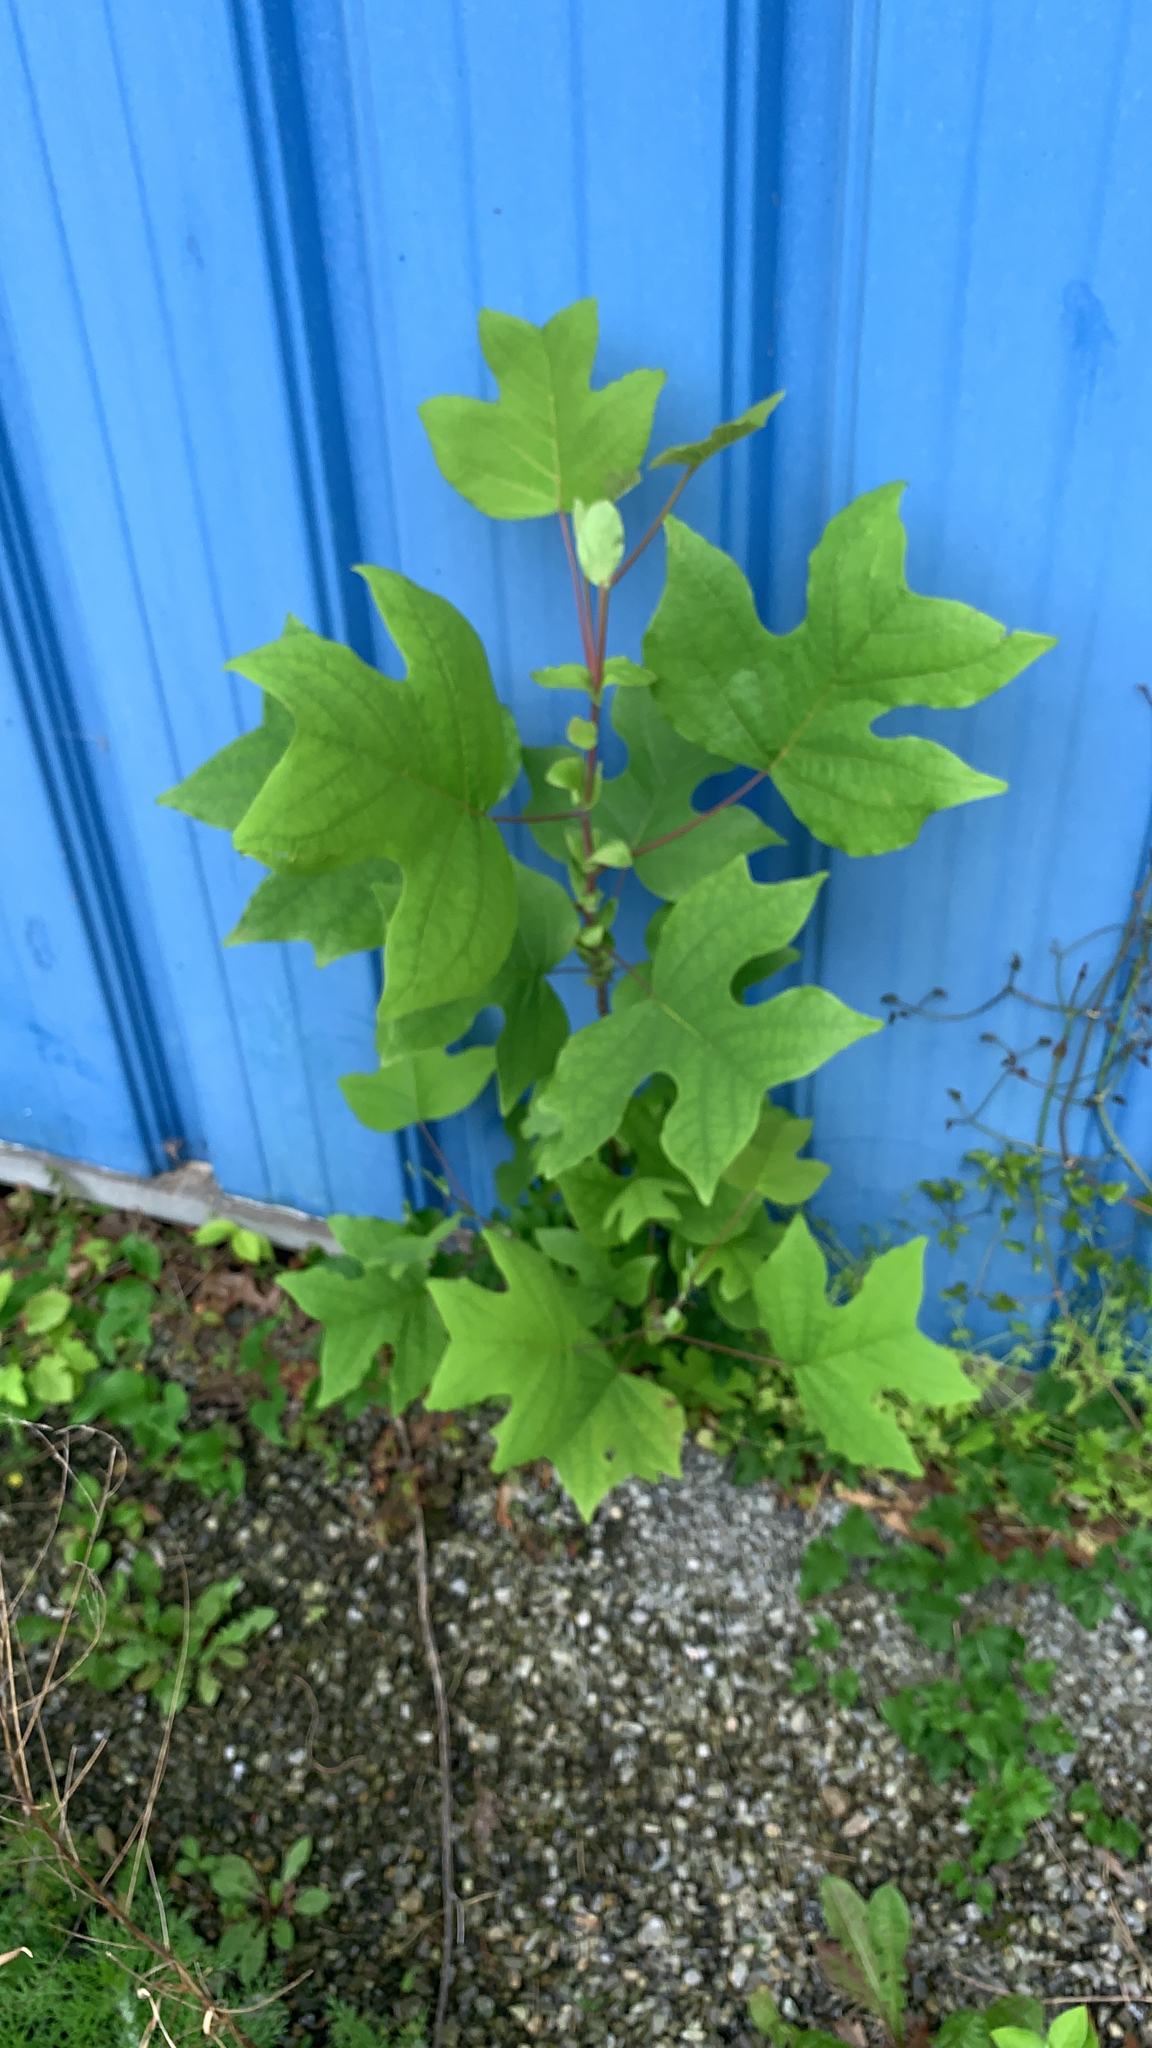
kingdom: Plantae
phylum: Tracheophyta
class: Magnoliopsida
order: Magnoliales
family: Magnoliaceae
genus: Liriodendron
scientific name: Liriodendron tulipifera
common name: Tulip tree
